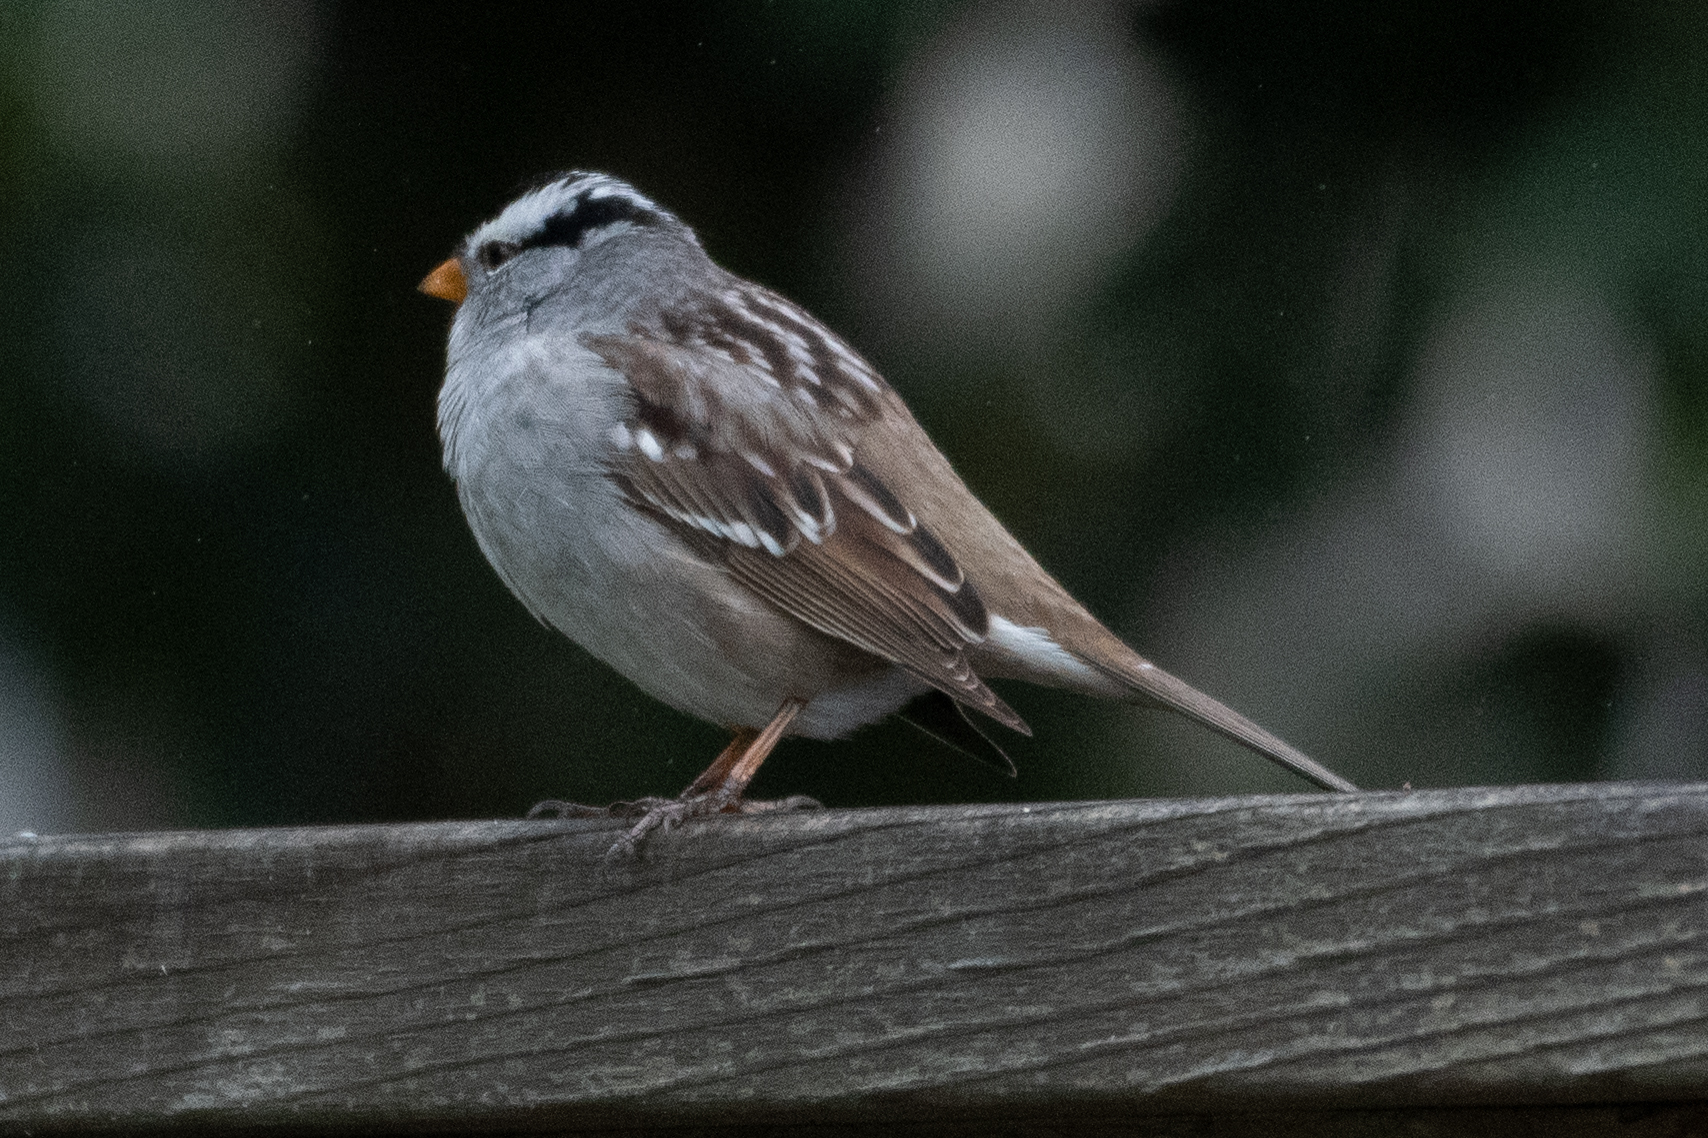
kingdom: Animalia
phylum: Chordata
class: Aves
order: Passeriformes
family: Passerellidae
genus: Zonotrichia
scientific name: Zonotrichia leucophrys
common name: White-crowned sparrow
